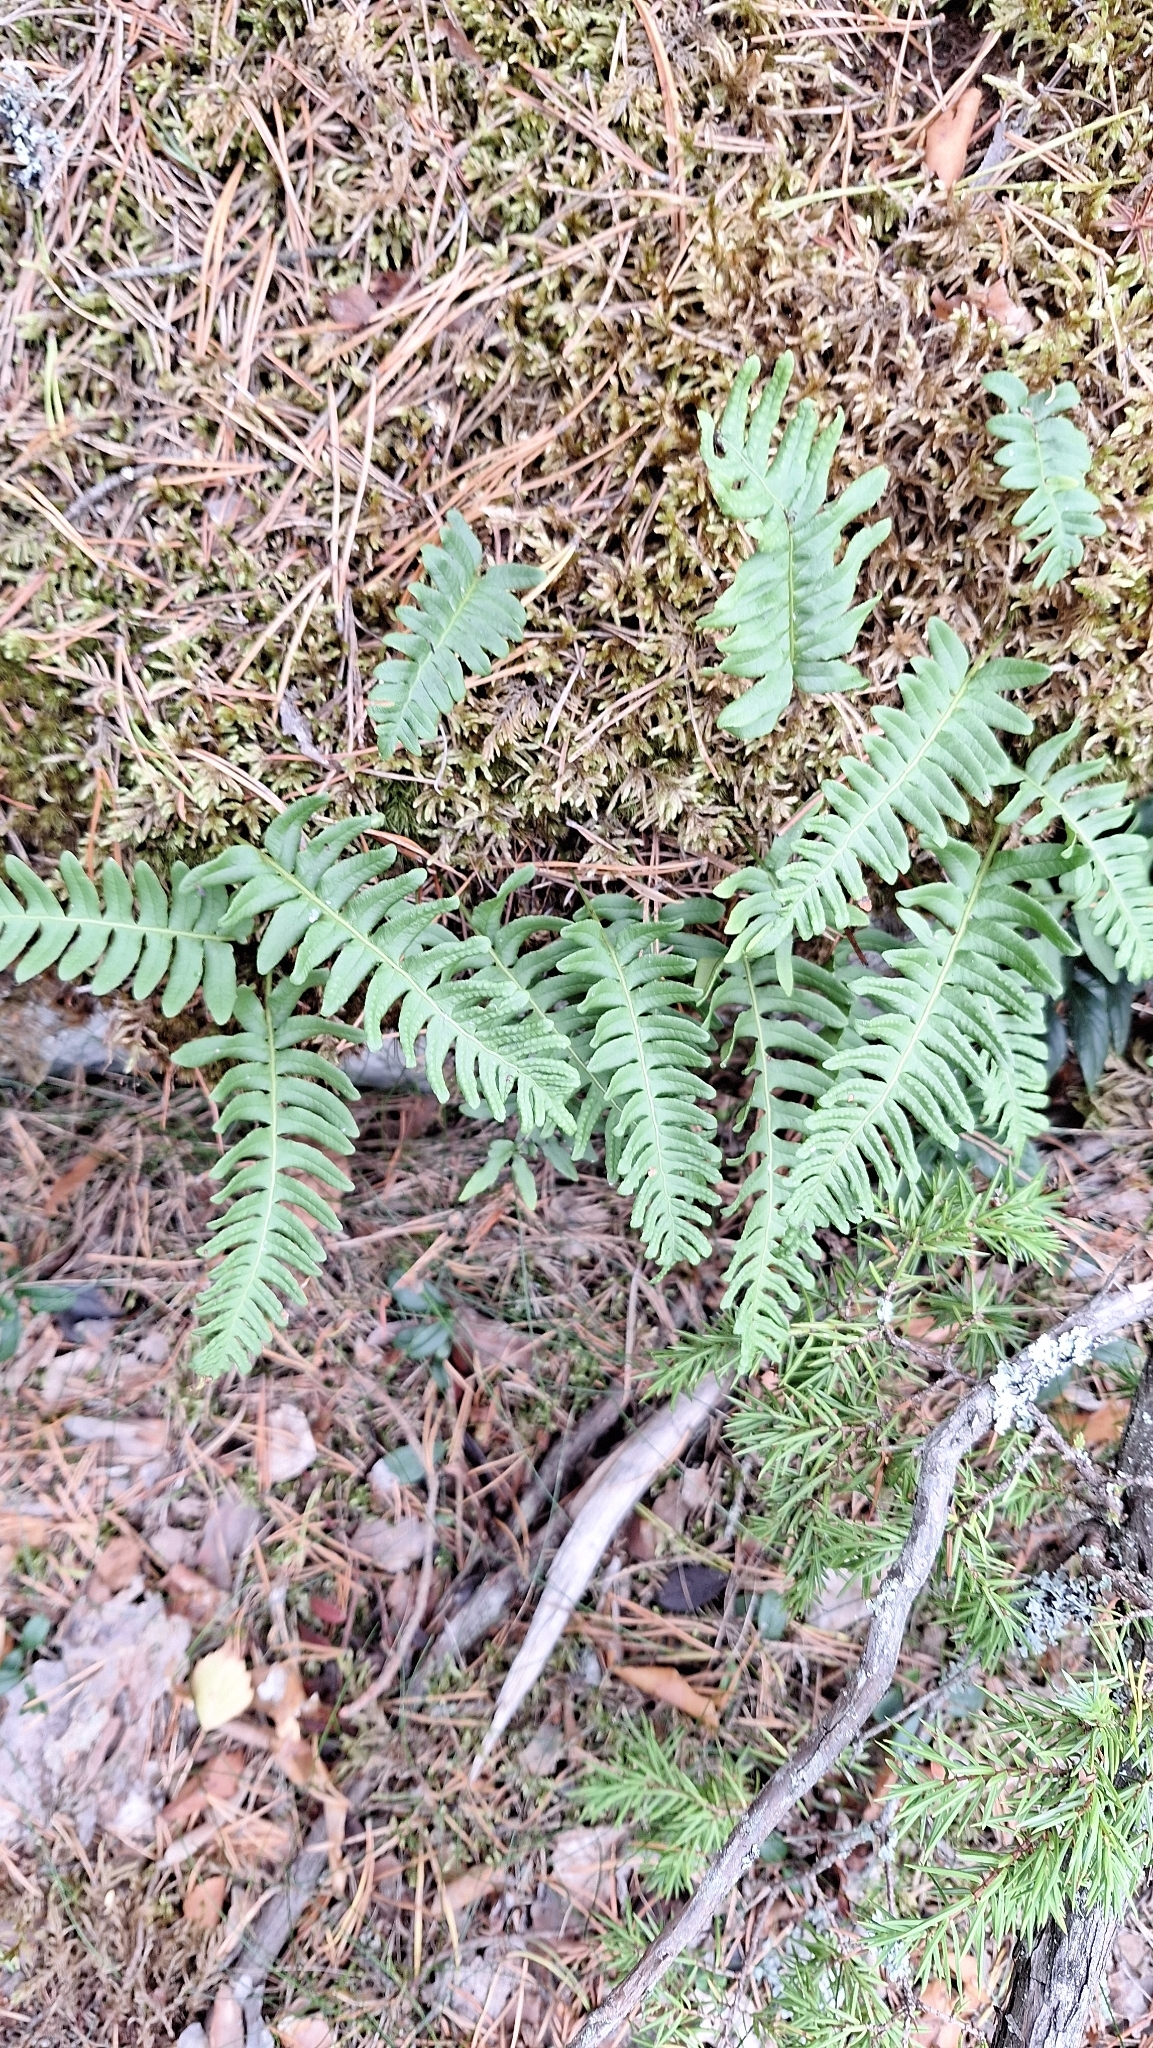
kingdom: Plantae
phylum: Tracheophyta
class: Polypodiopsida
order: Polypodiales
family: Polypodiaceae
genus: Polypodium
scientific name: Polypodium vulgare
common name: Common polypody
